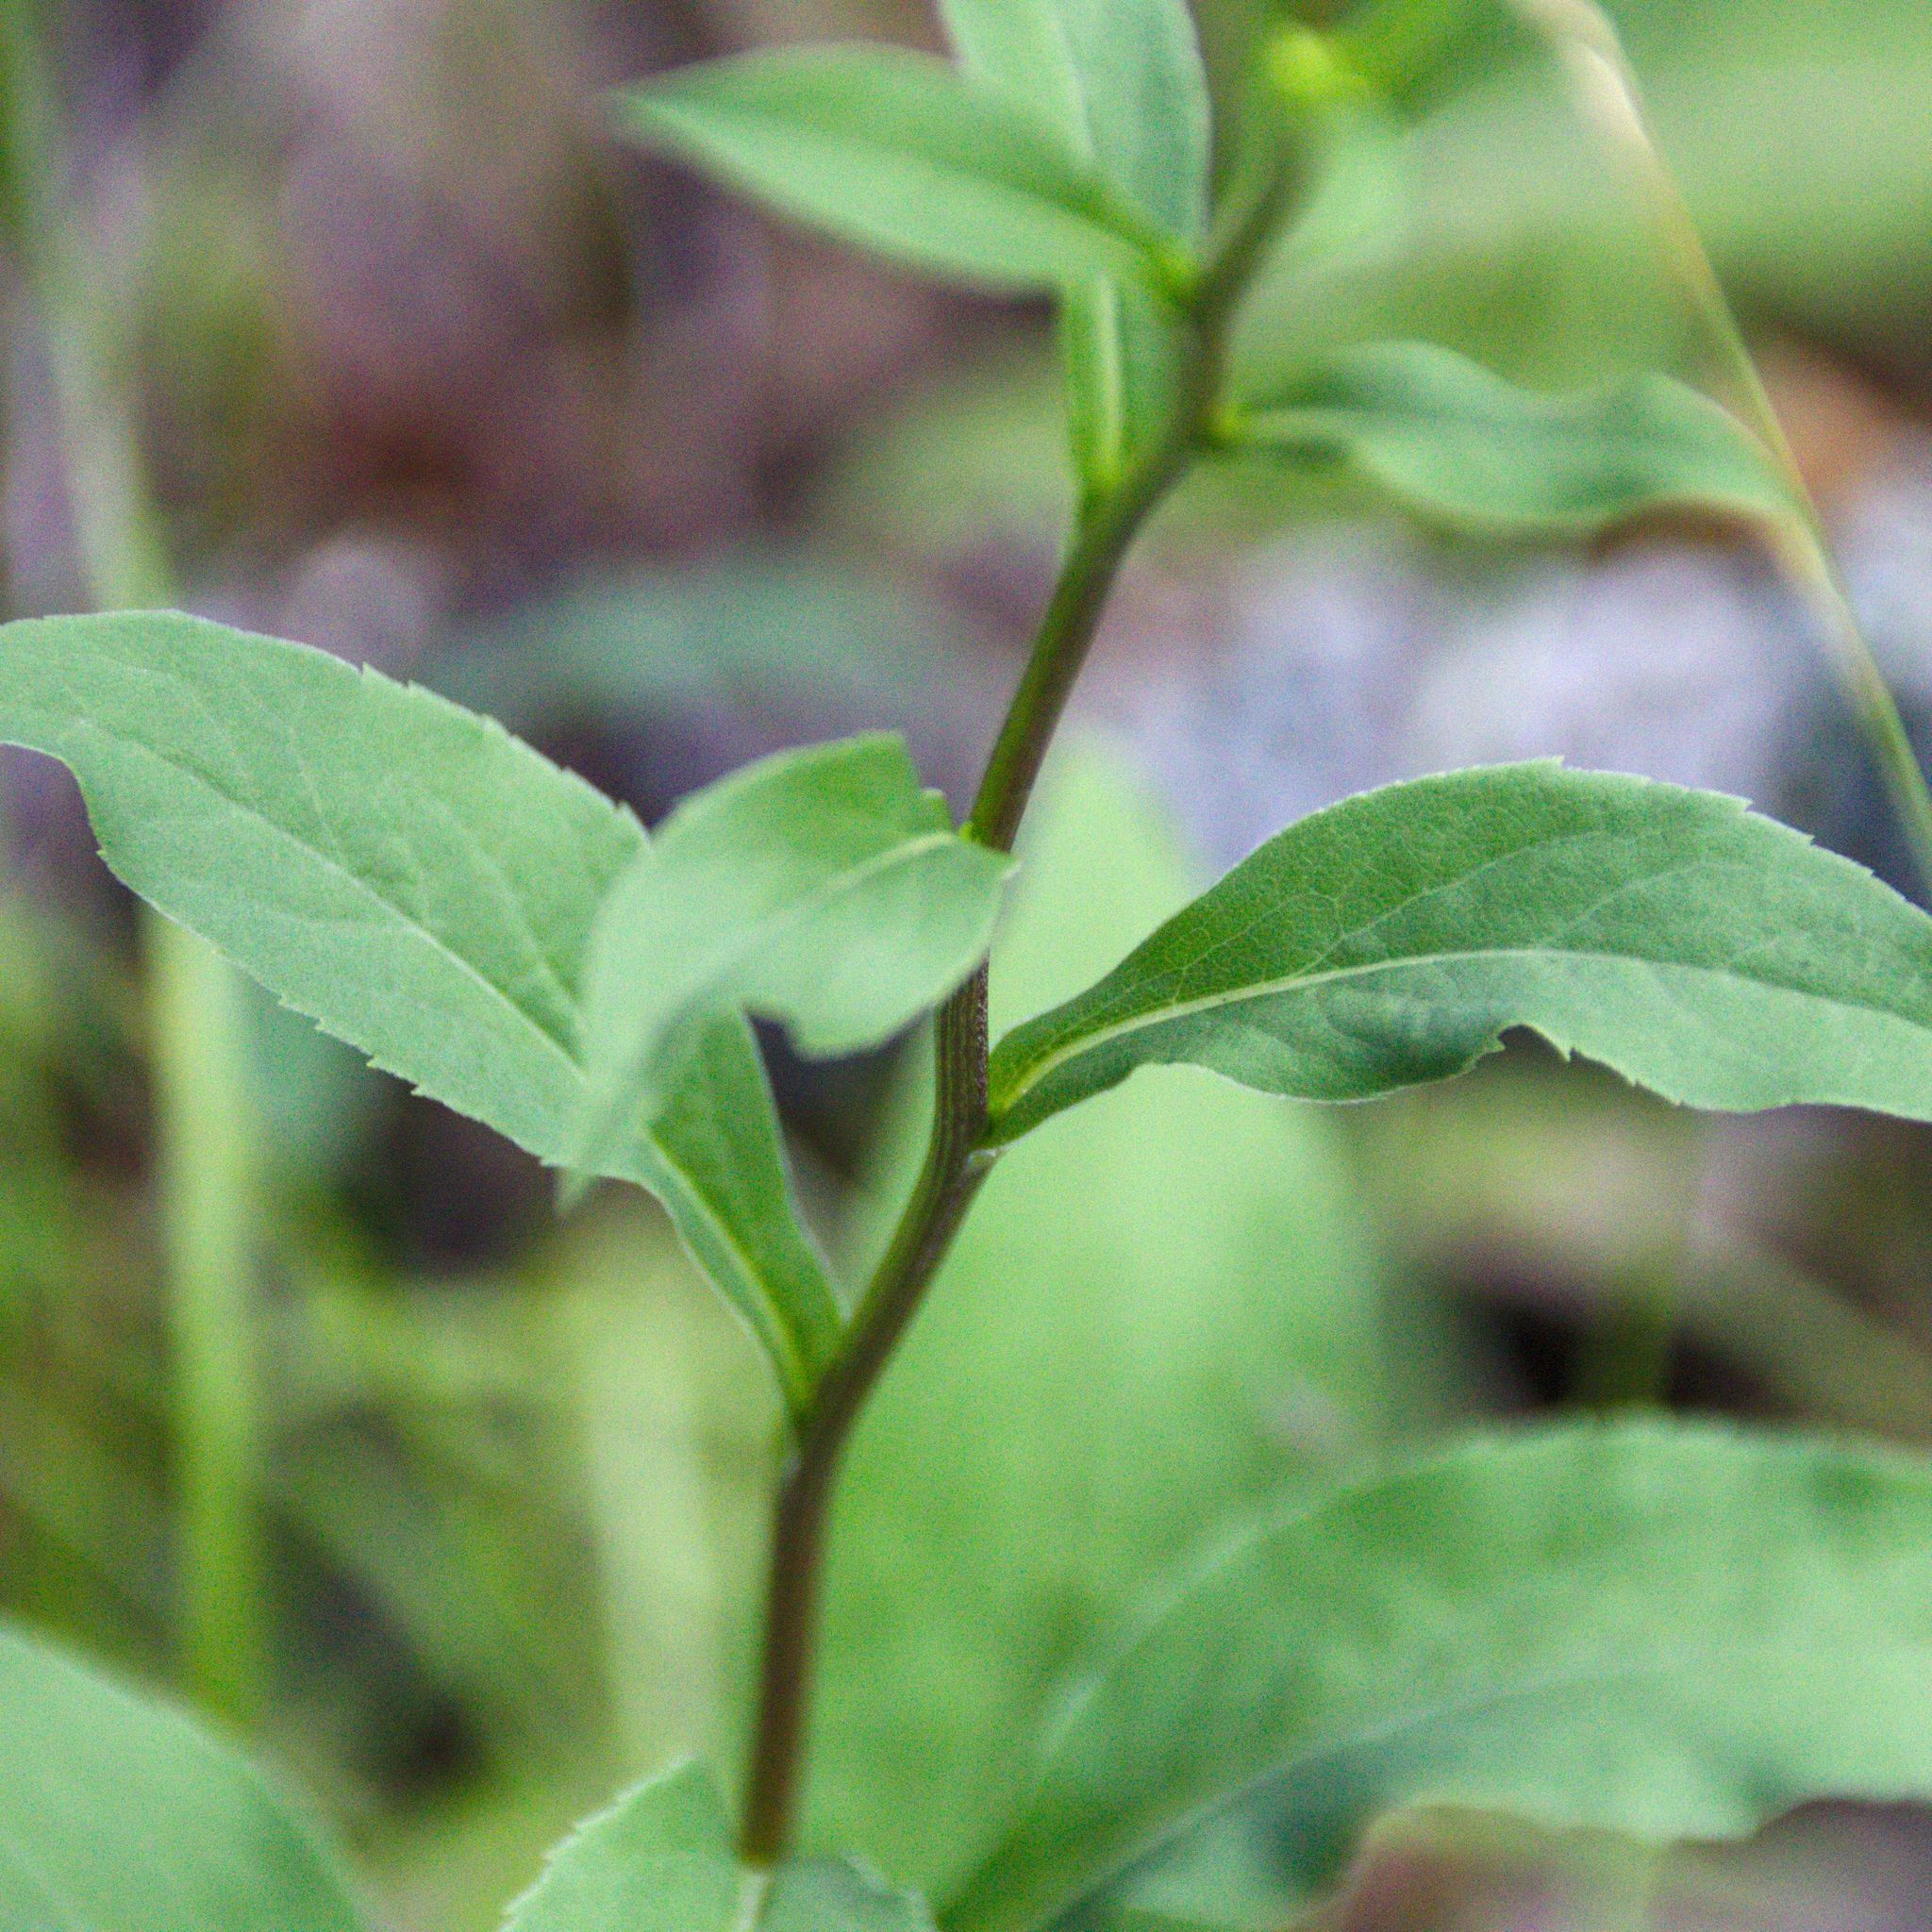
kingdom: Plantae
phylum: Tracheophyta
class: Magnoliopsida
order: Asterales
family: Asteraceae
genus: Solidago
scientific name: Solidago virgaurea
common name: Goldenrod
